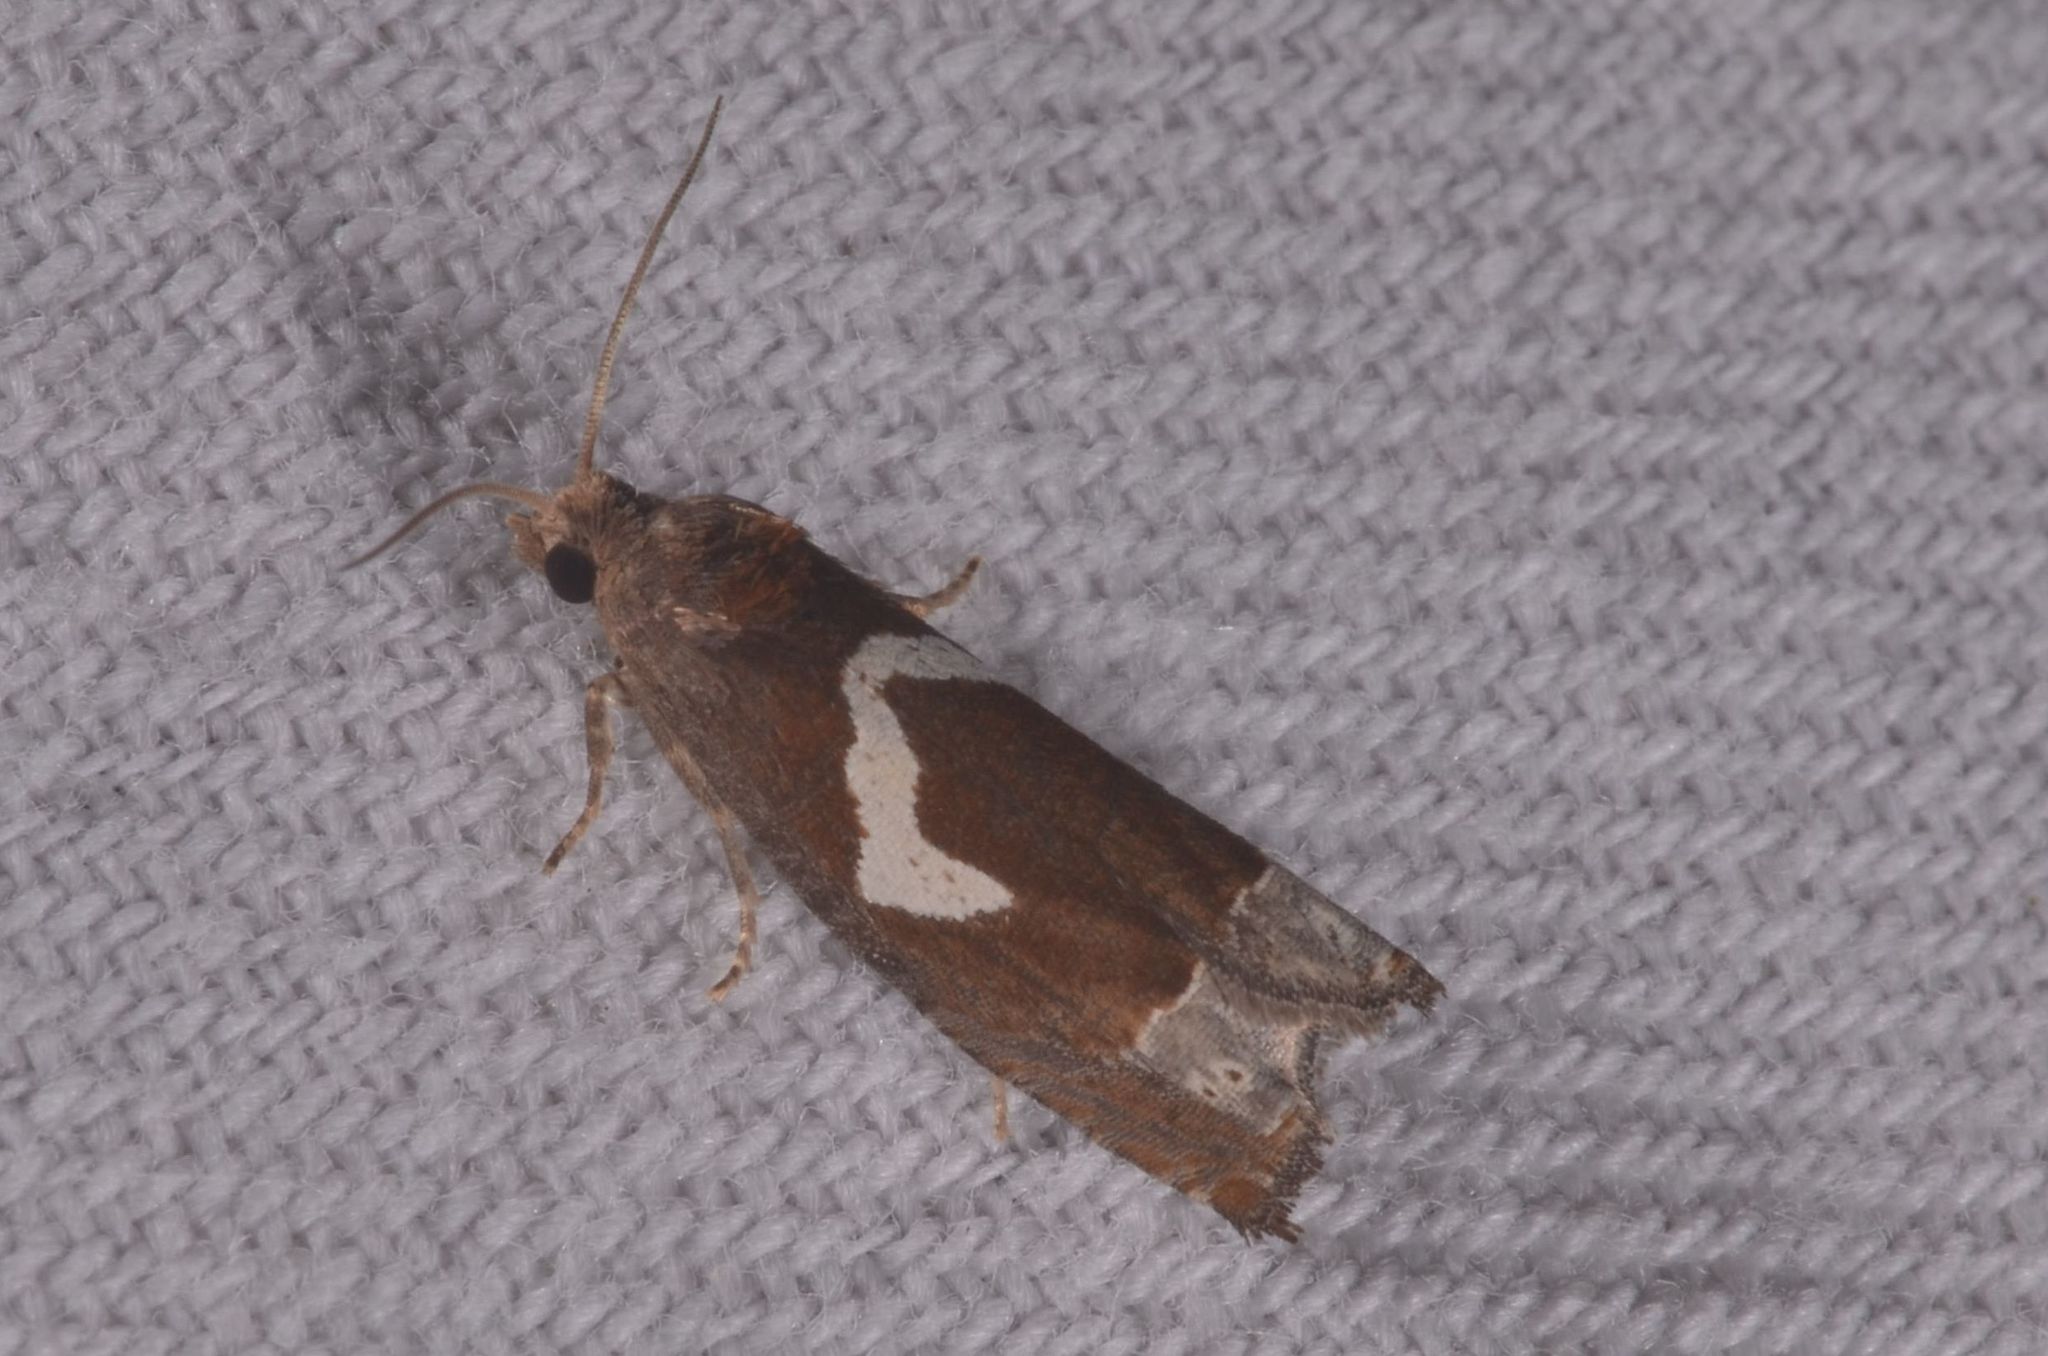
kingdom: Animalia
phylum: Arthropoda
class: Insecta
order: Lepidoptera
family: Tortricidae
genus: Epiblema
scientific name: Epiblema foenella
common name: White-foot bell
